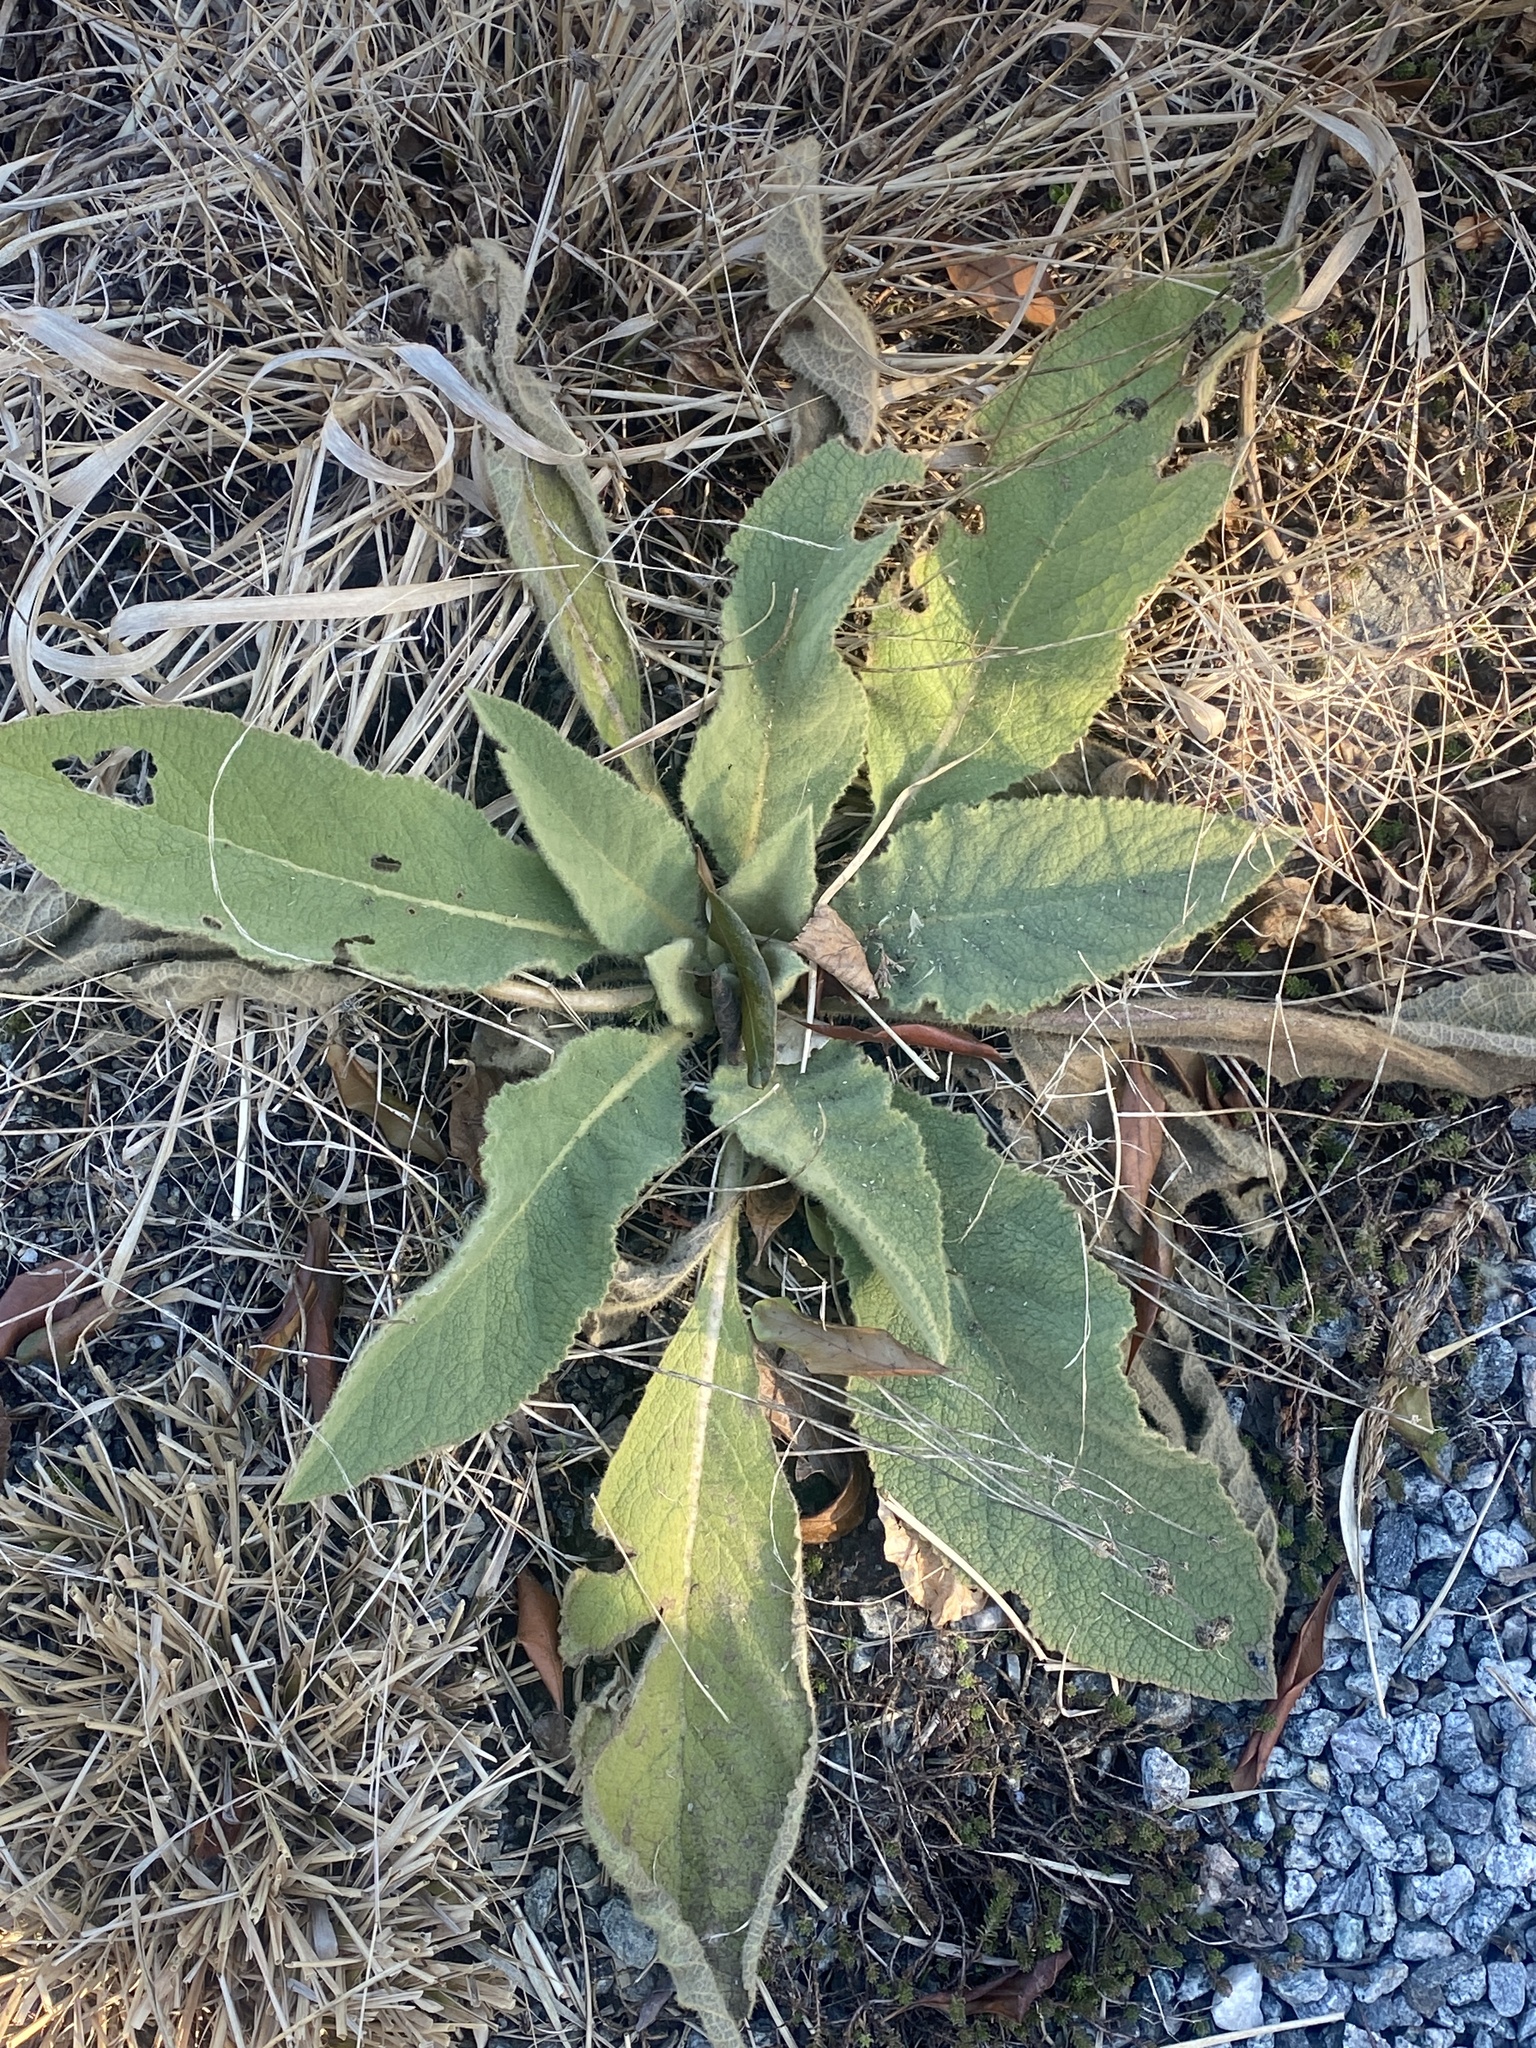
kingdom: Plantae
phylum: Tracheophyta
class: Magnoliopsida
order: Lamiales
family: Scrophulariaceae
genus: Verbascum
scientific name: Verbascum thapsus
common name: Common mullein
